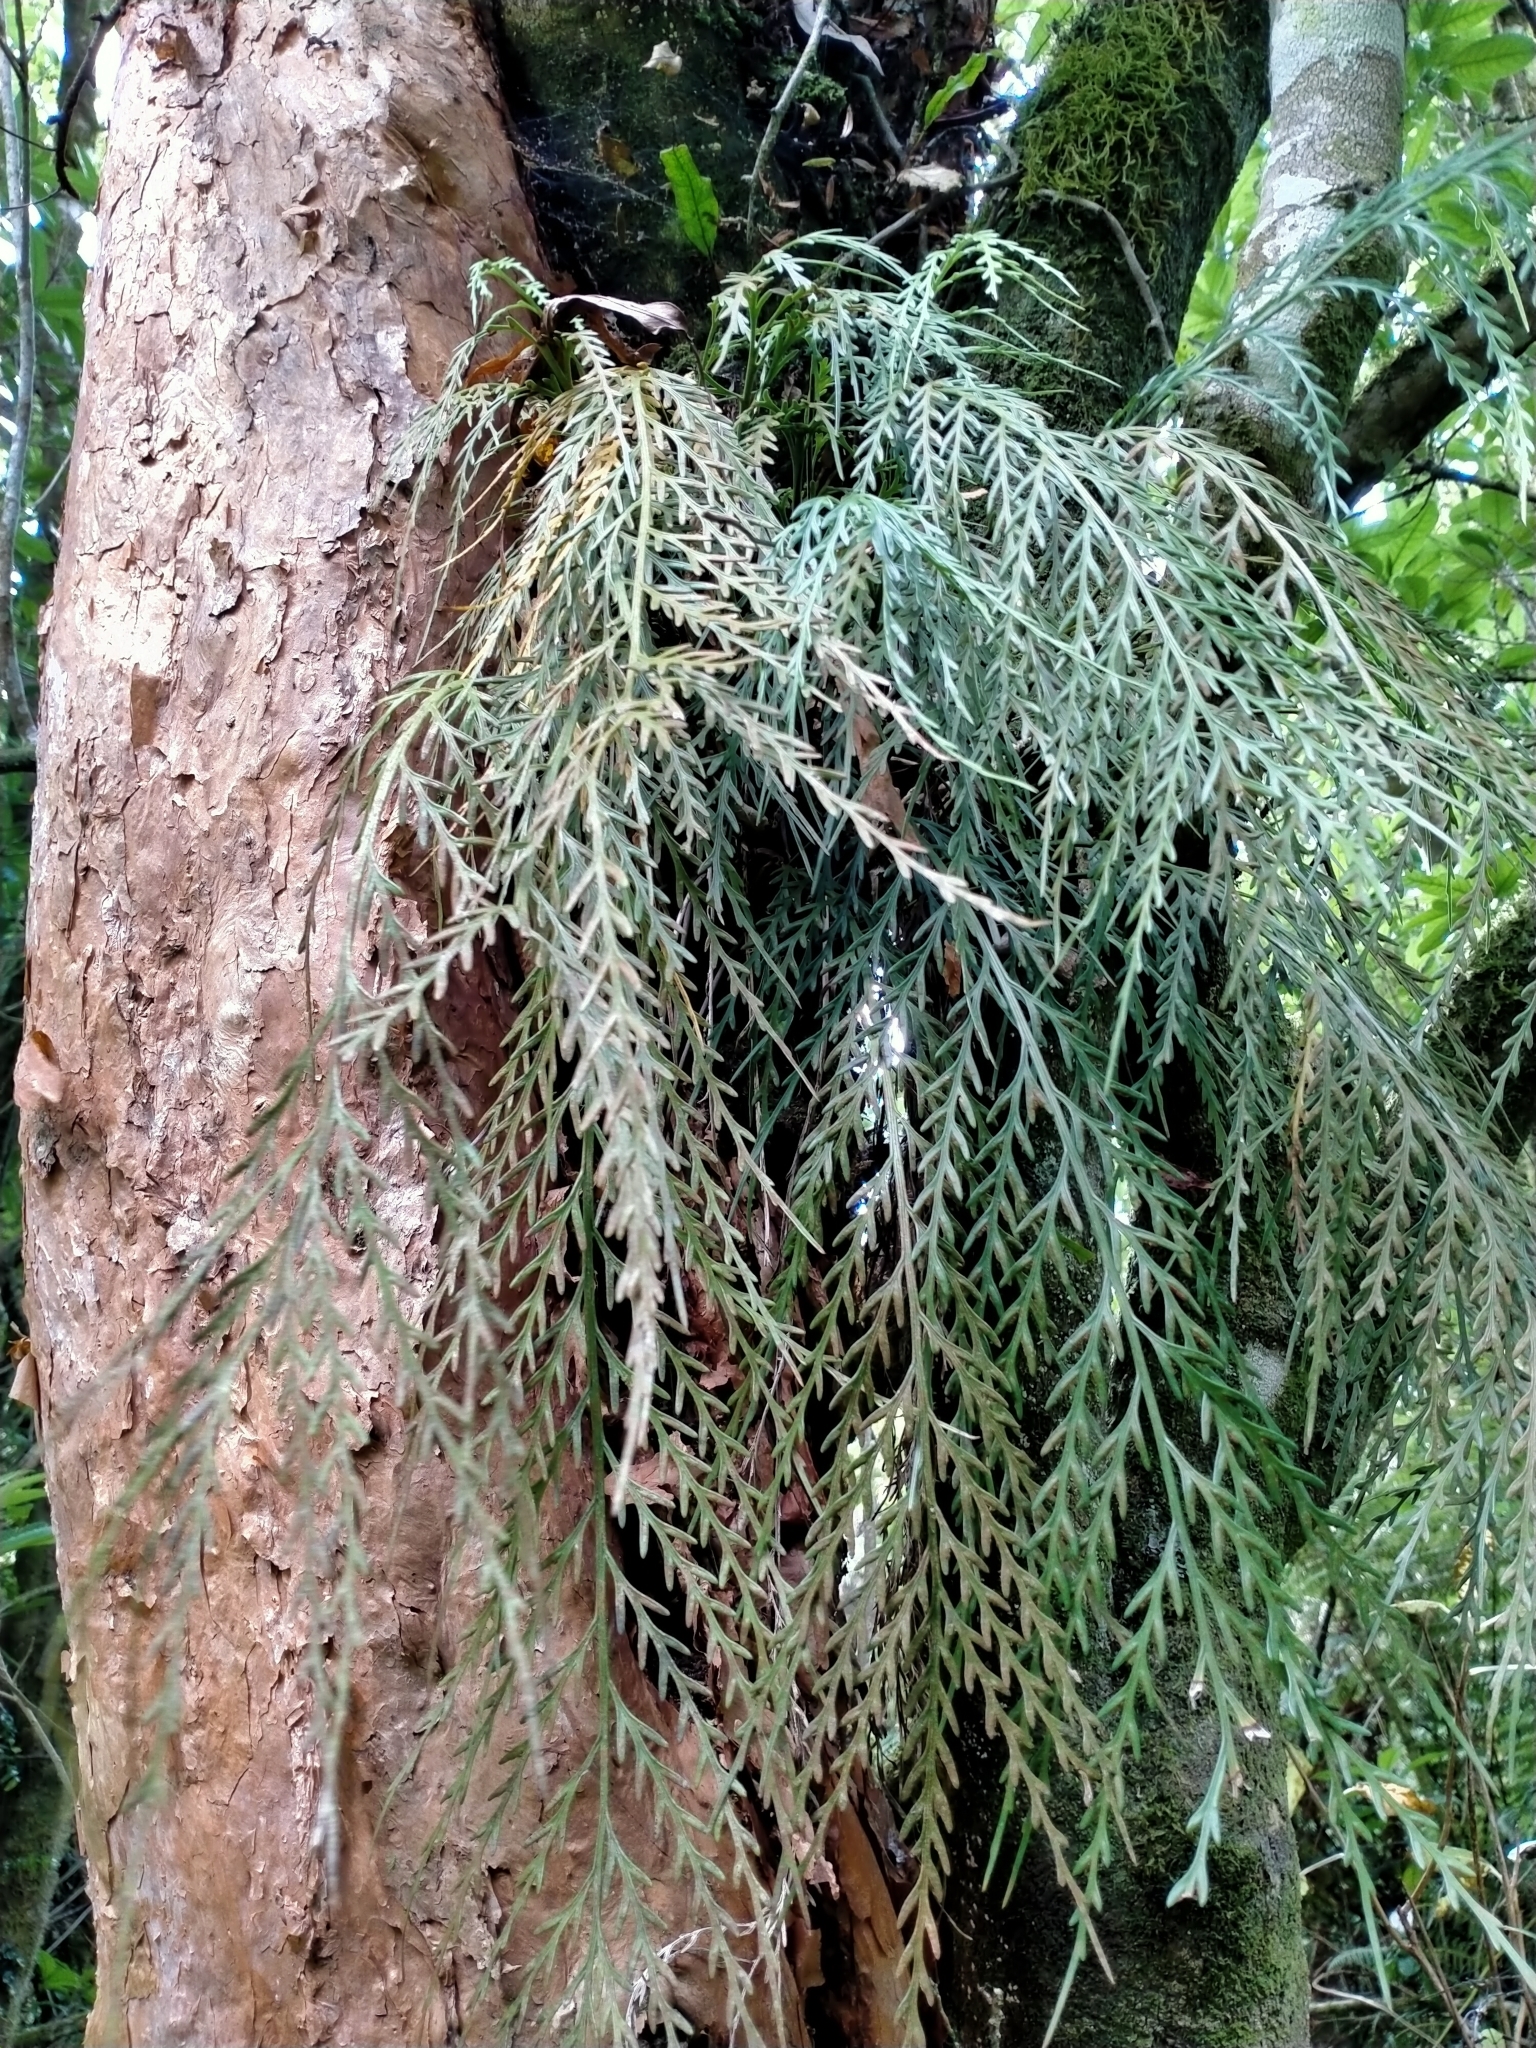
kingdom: Plantae
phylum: Tracheophyta
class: Polypodiopsida
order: Polypodiales
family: Aspleniaceae
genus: Asplenium
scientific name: Asplenium flaccidum
